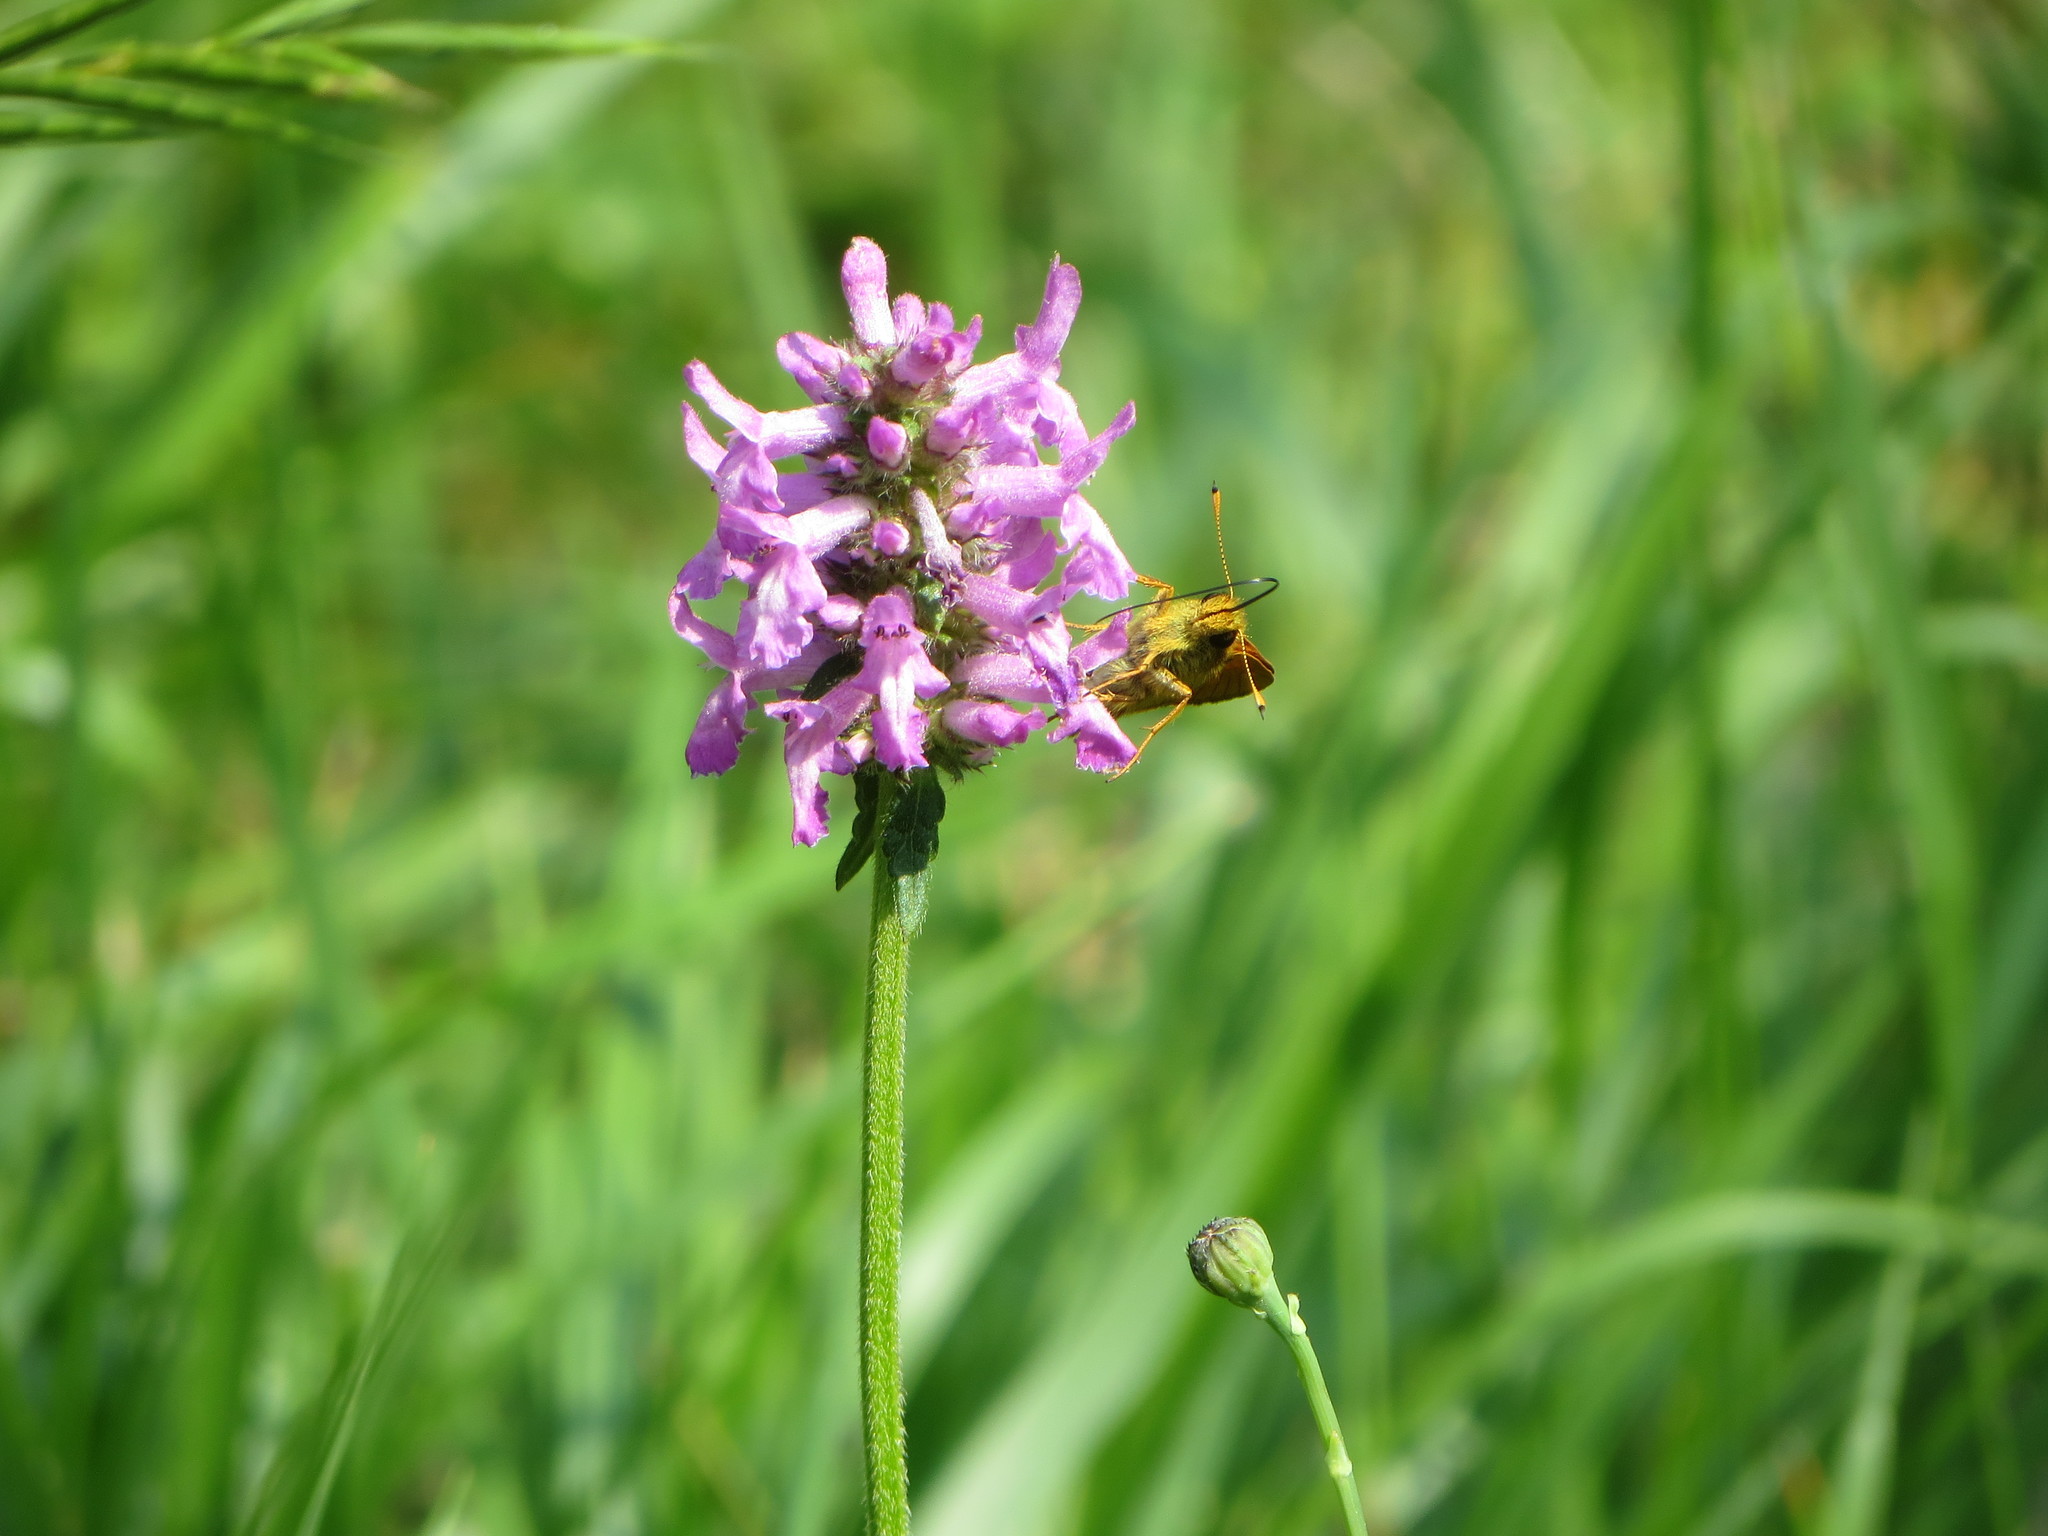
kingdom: Animalia
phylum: Arthropoda
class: Insecta
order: Lepidoptera
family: Hesperiidae
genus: Ochlodes
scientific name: Ochlodes venata
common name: Large skipper
